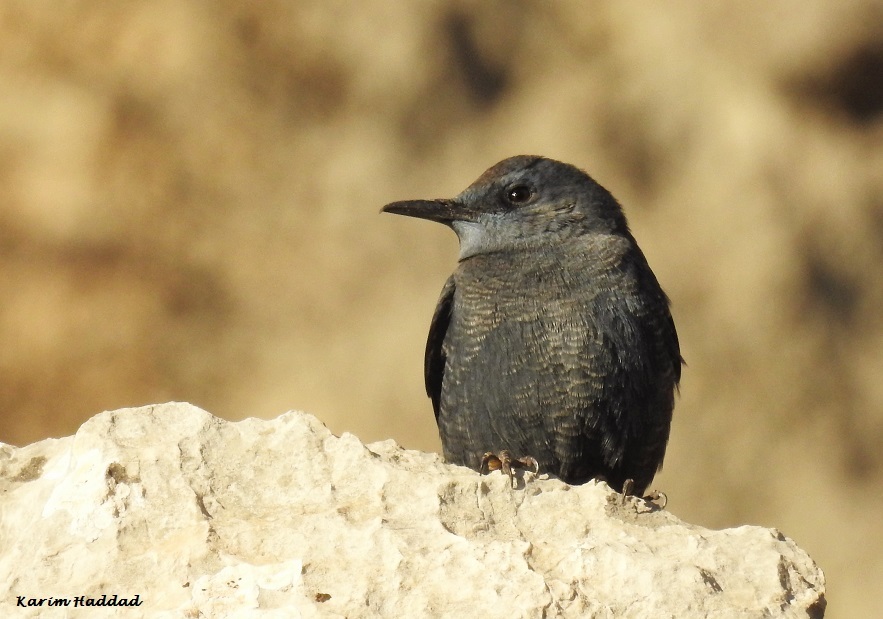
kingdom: Animalia
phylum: Chordata
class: Aves
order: Passeriformes
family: Muscicapidae
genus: Monticola
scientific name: Monticola solitarius
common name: Blue rock thrush
